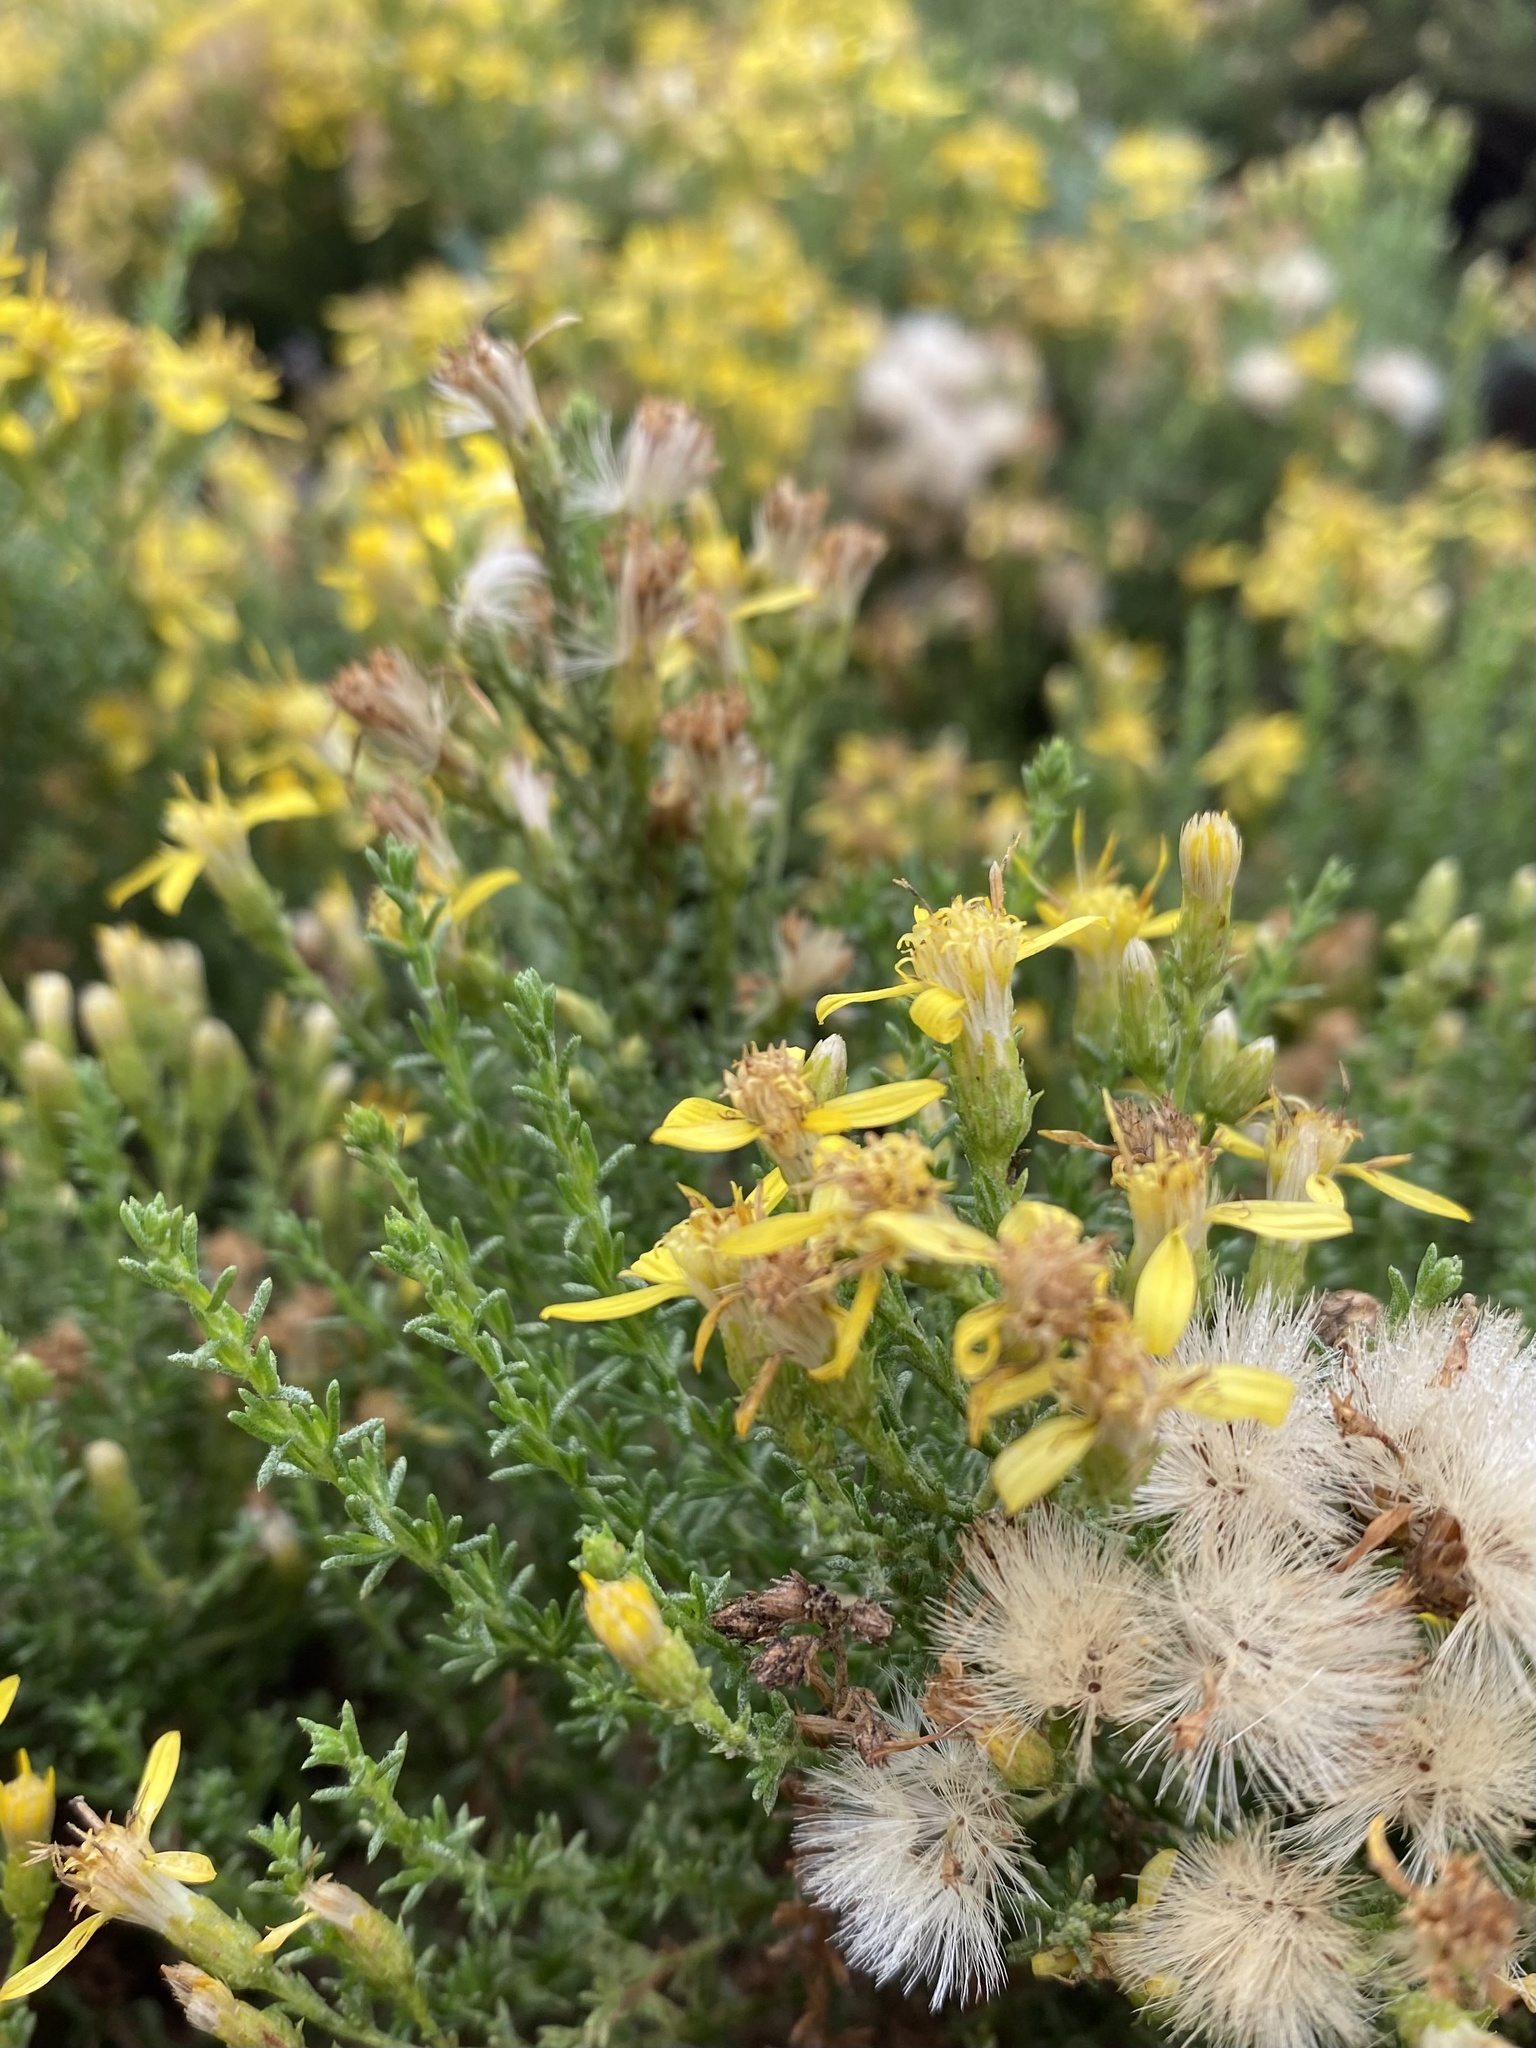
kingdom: Plantae
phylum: Tracheophyta
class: Magnoliopsida
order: Asterales
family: Asteraceae
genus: Ericameria
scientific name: Ericameria ericoides
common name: California goldenbush
